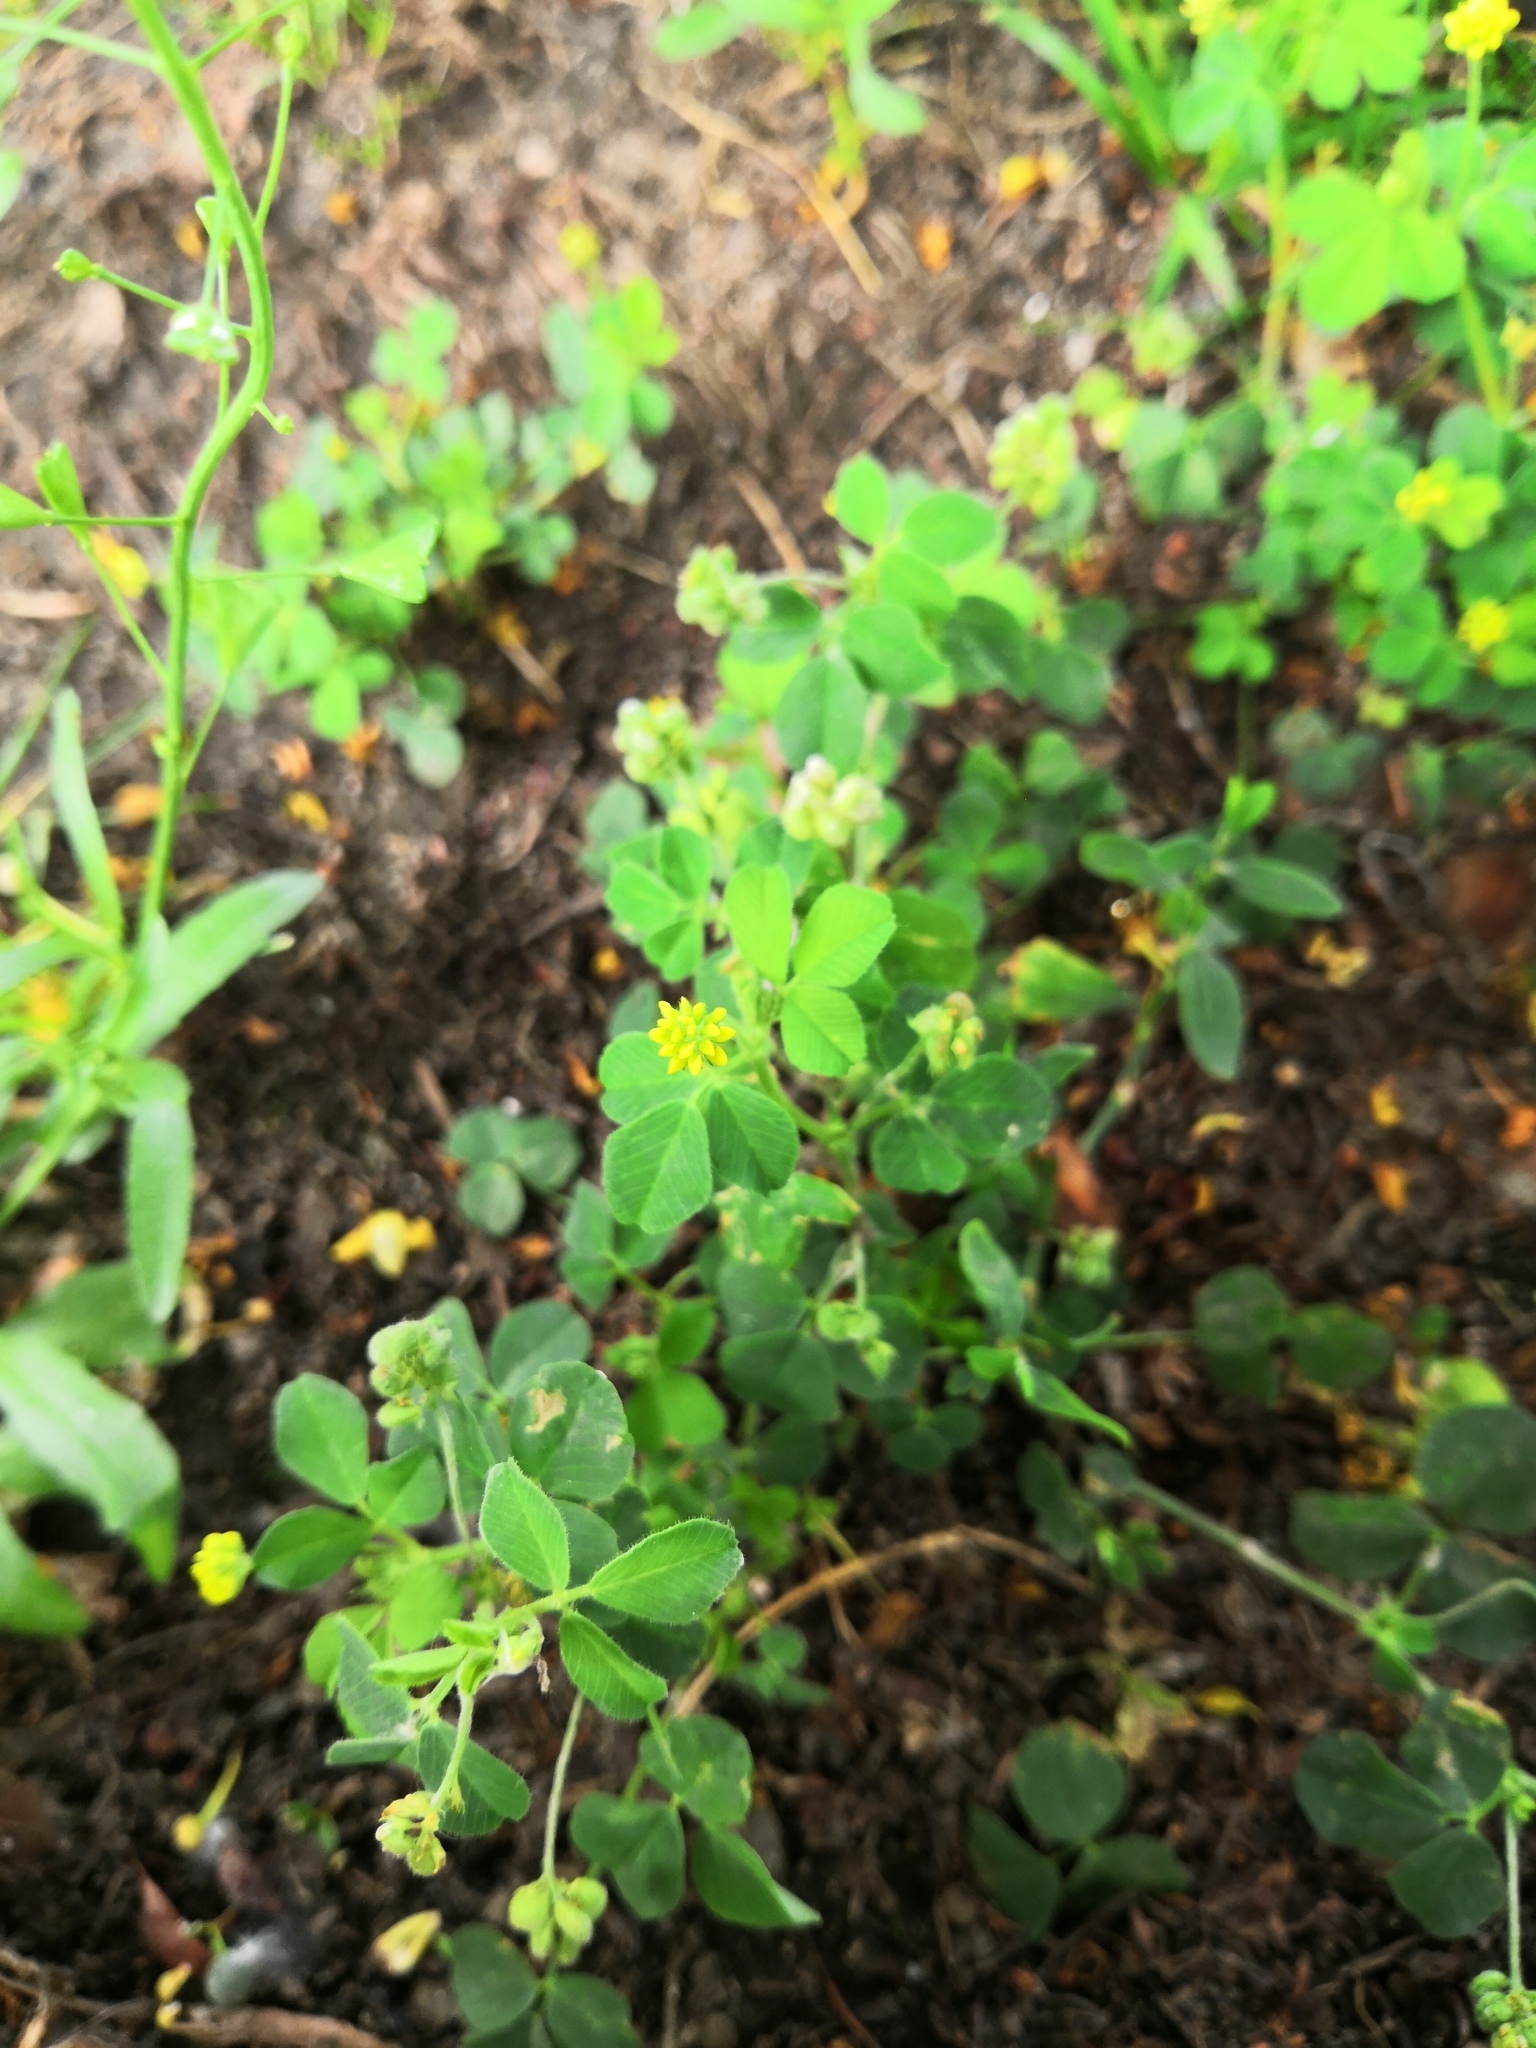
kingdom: Plantae
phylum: Tracheophyta
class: Magnoliopsida
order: Fabales
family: Fabaceae
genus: Medicago
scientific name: Medicago lupulina
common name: Black medick
